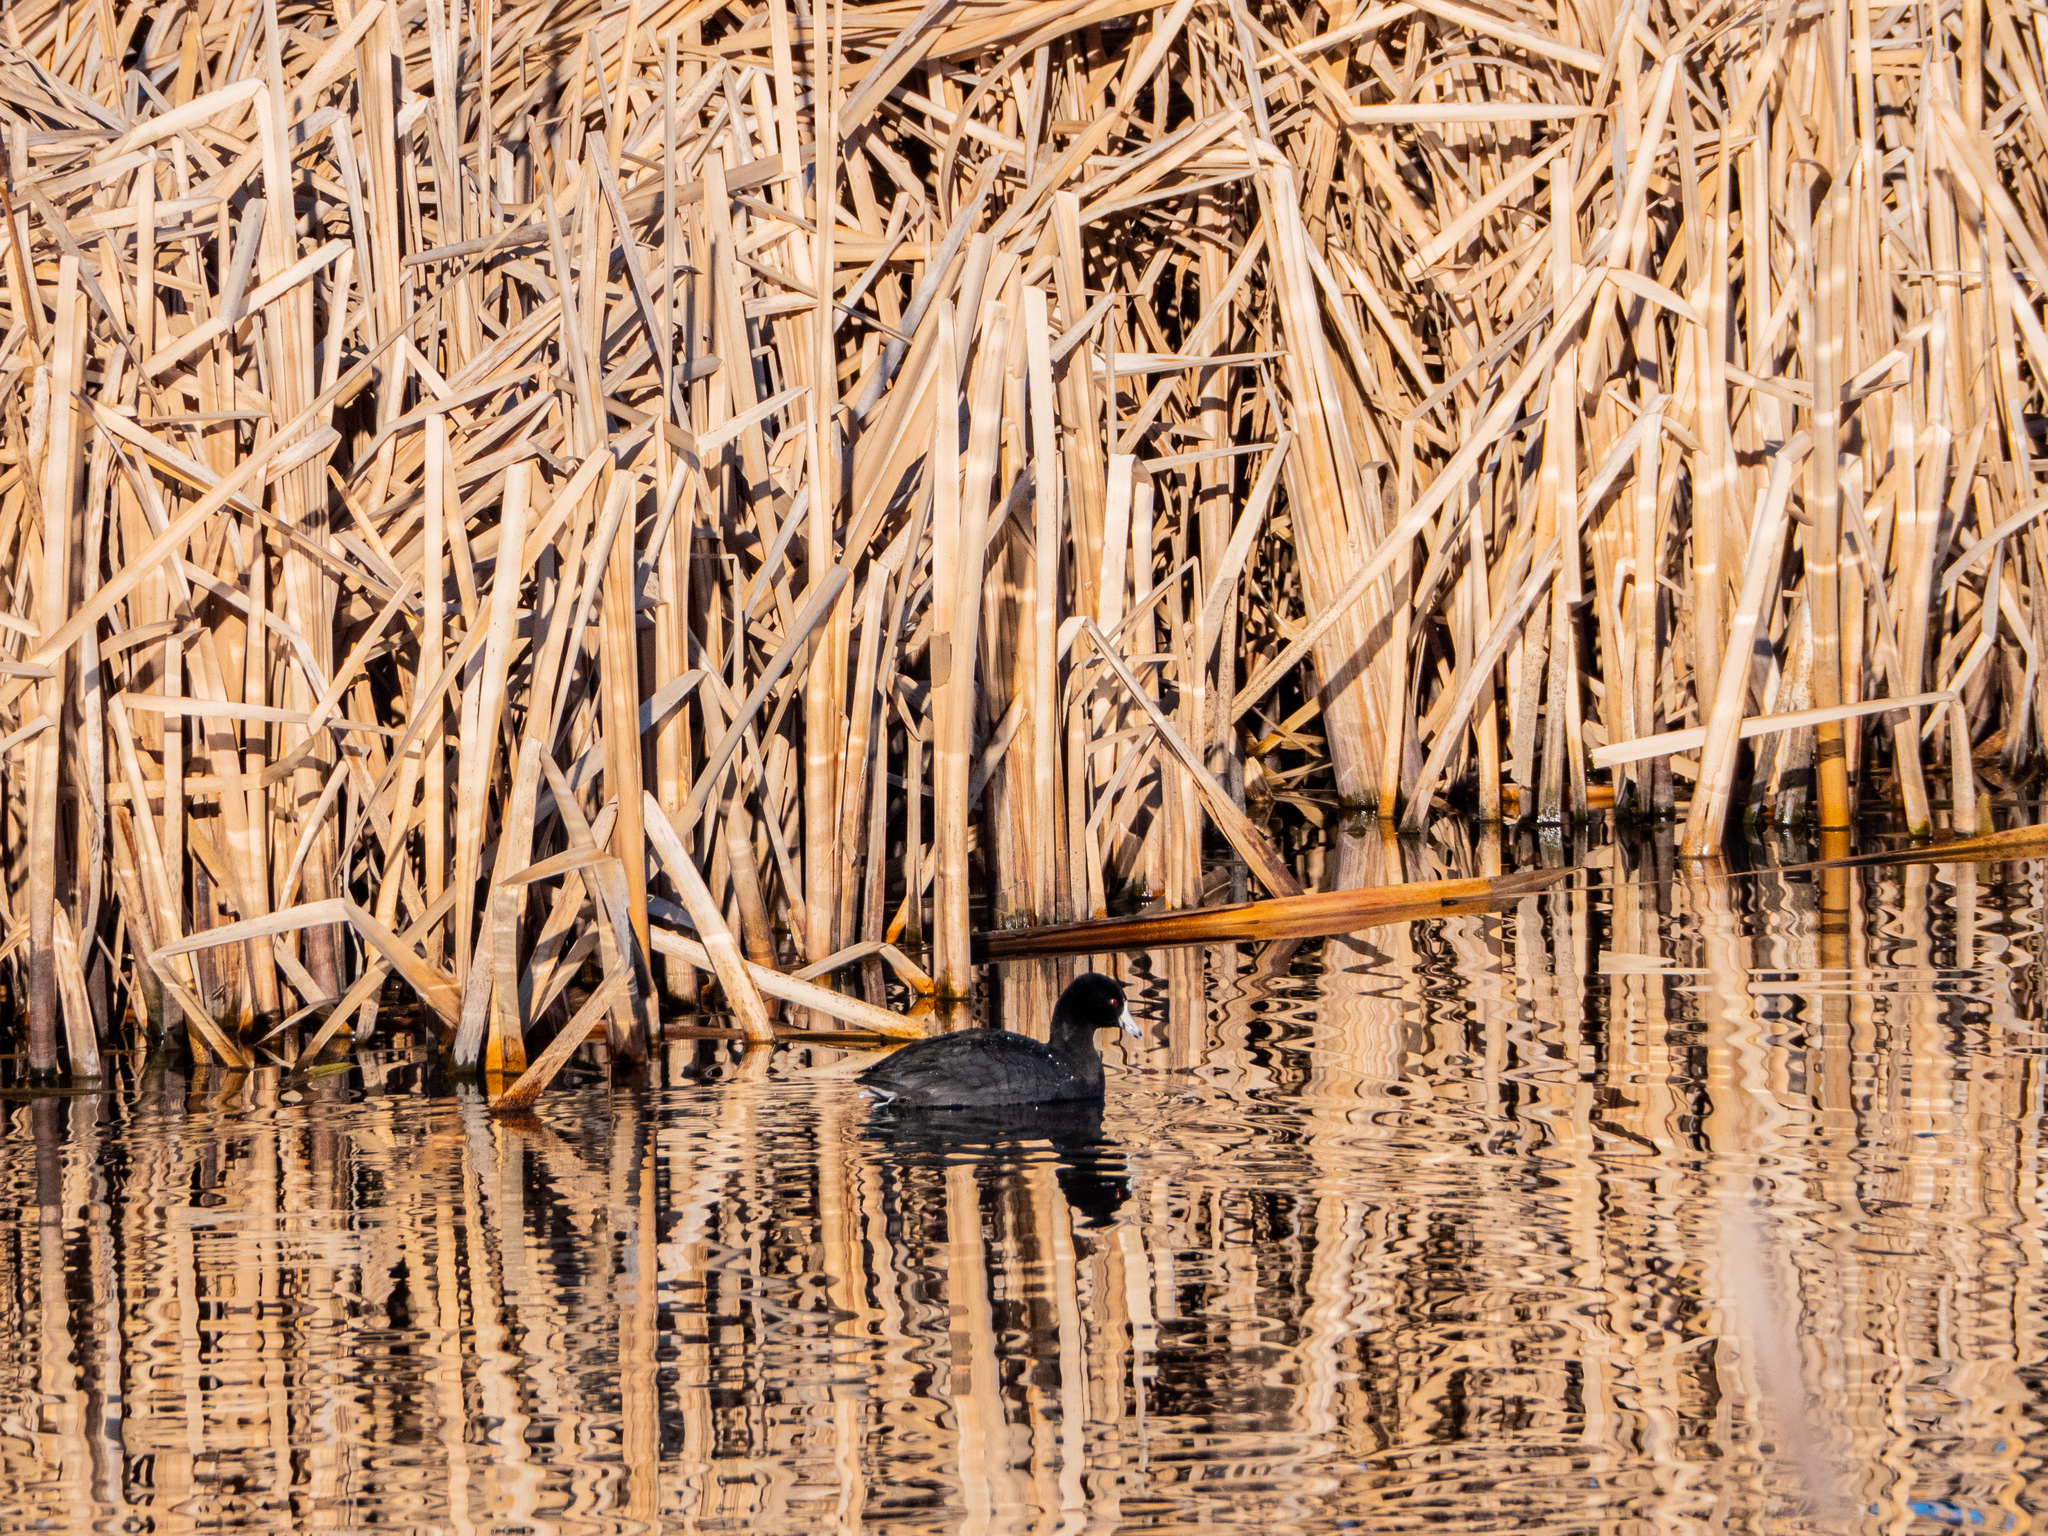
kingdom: Animalia
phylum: Chordata
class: Aves
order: Gruiformes
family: Rallidae
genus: Fulica
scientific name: Fulica americana
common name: American coot
